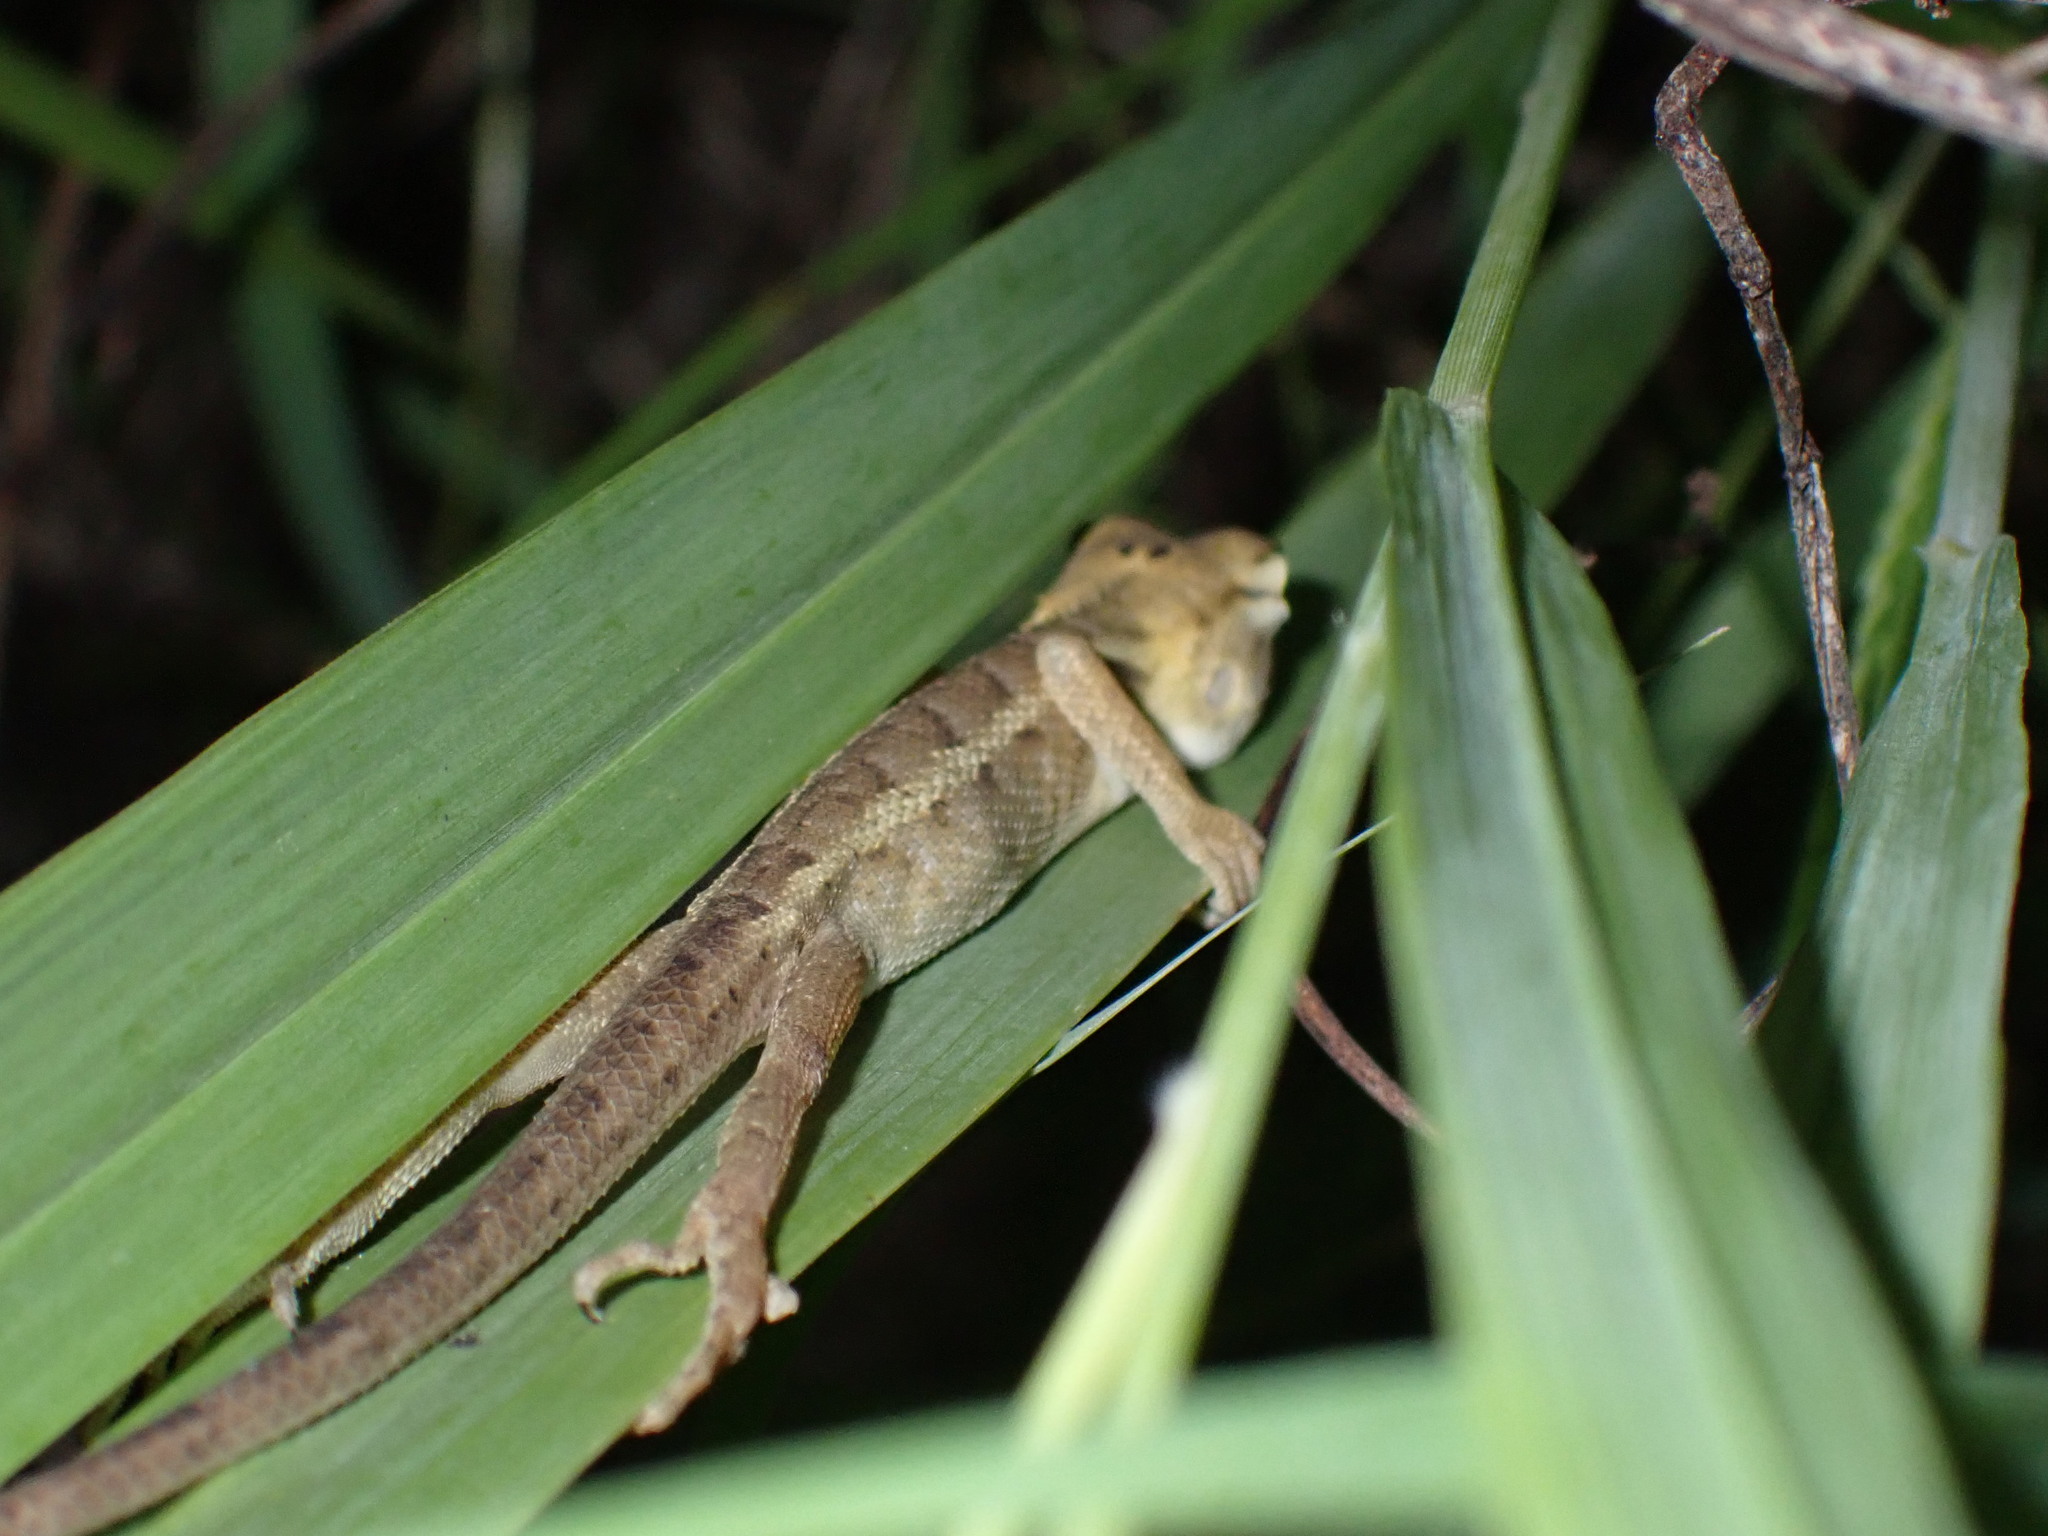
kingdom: Animalia
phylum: Chordata
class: Squamata
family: Agamidae
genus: Calotes
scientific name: Calotes versicolor
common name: Oriental garden lizard
